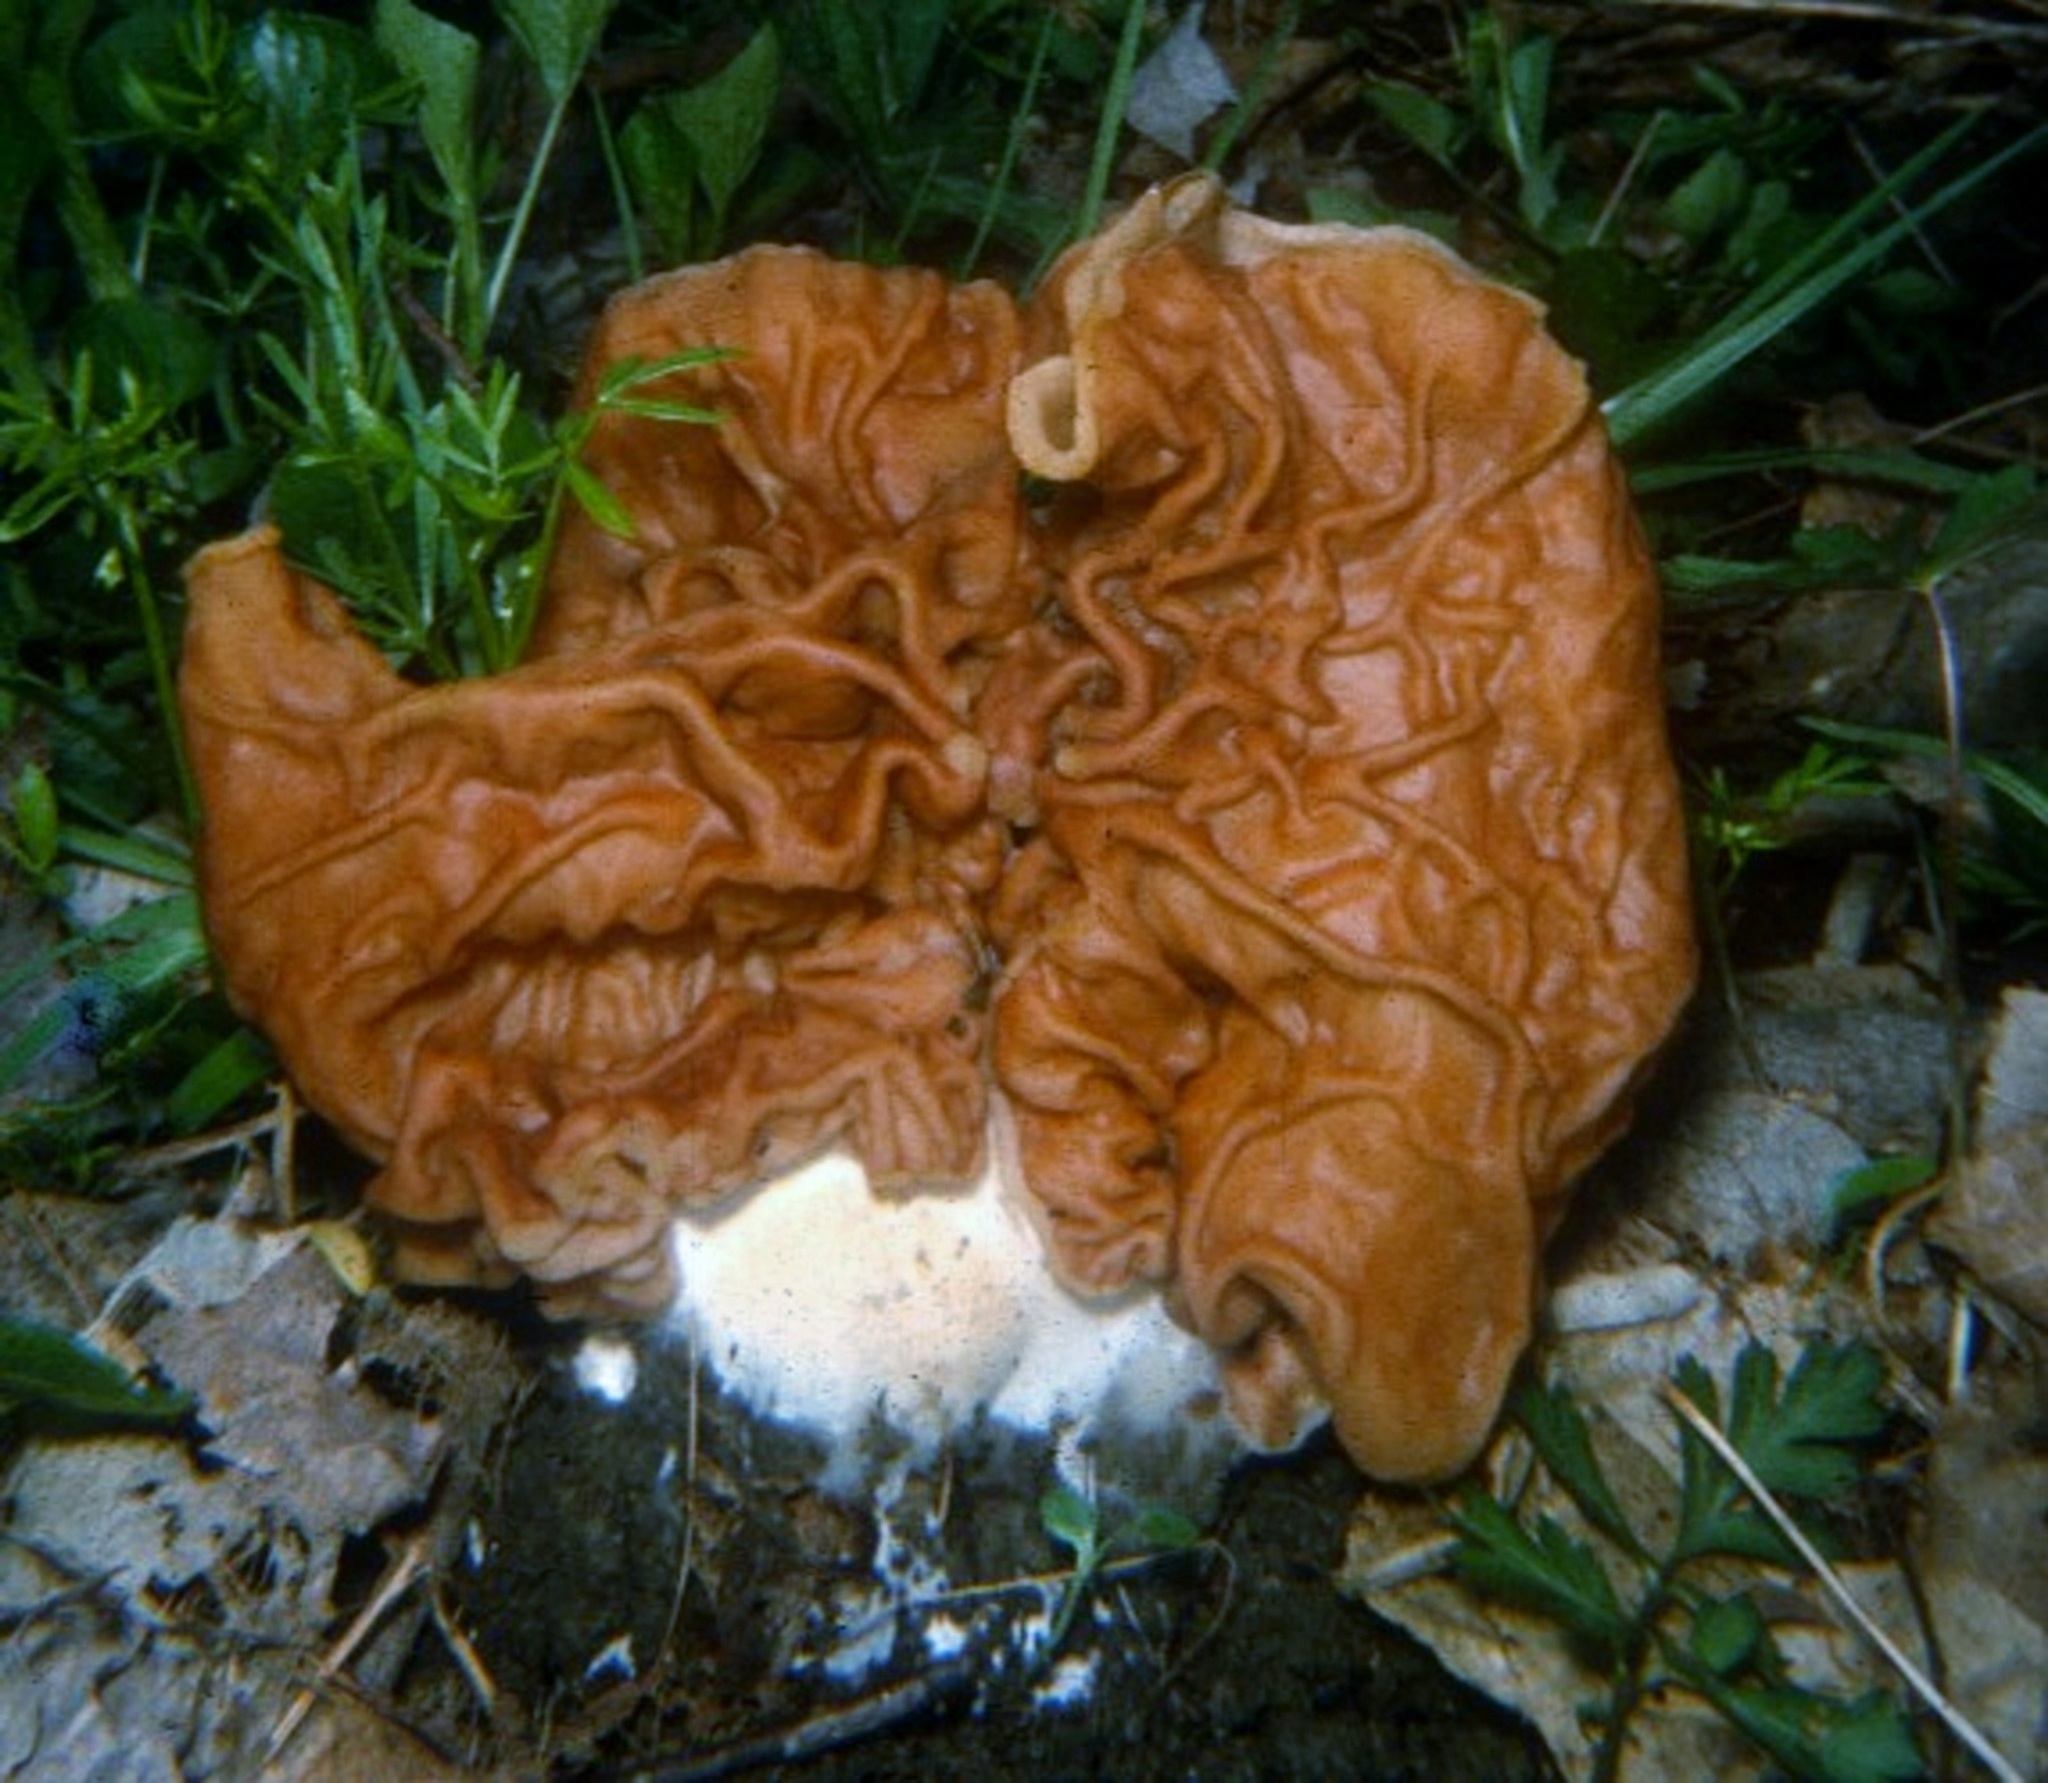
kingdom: Fungi
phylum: Ascomycota
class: Pezizomycetes
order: Pezizales
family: Discinaceae
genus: Discina
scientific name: Discina brunnea
